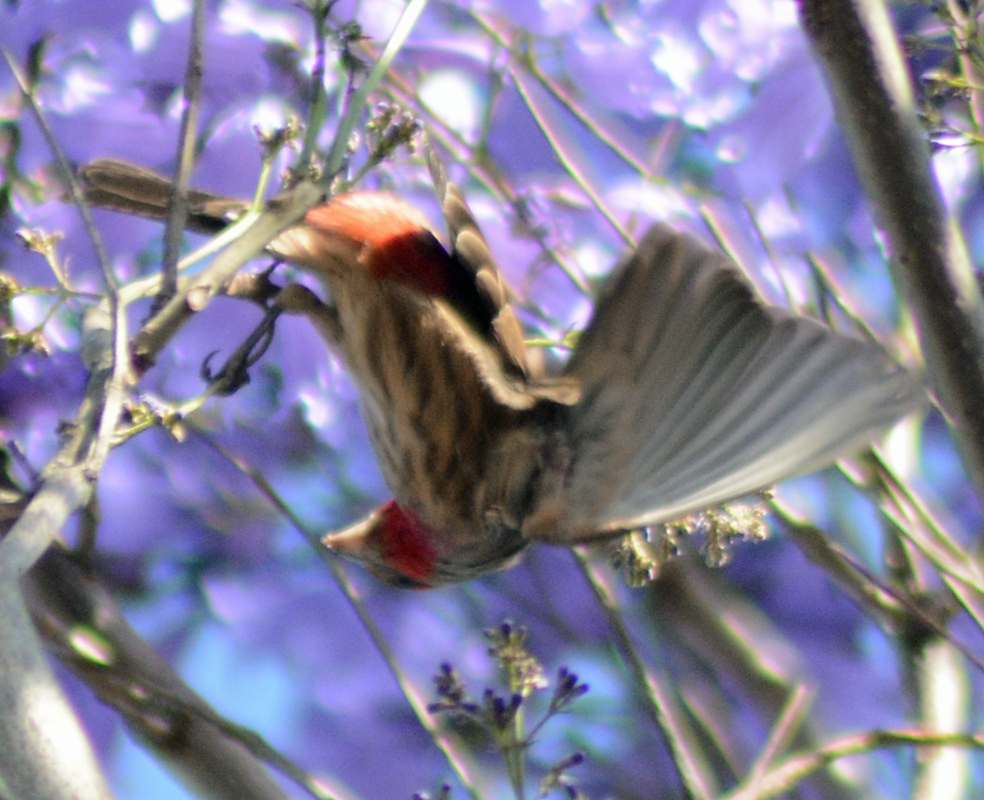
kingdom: Animalia
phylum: Chordata
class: Aves
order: Passeriformes
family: Fringillidae
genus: Haemorhous
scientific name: Haemorhous mexicanus
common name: House finch
